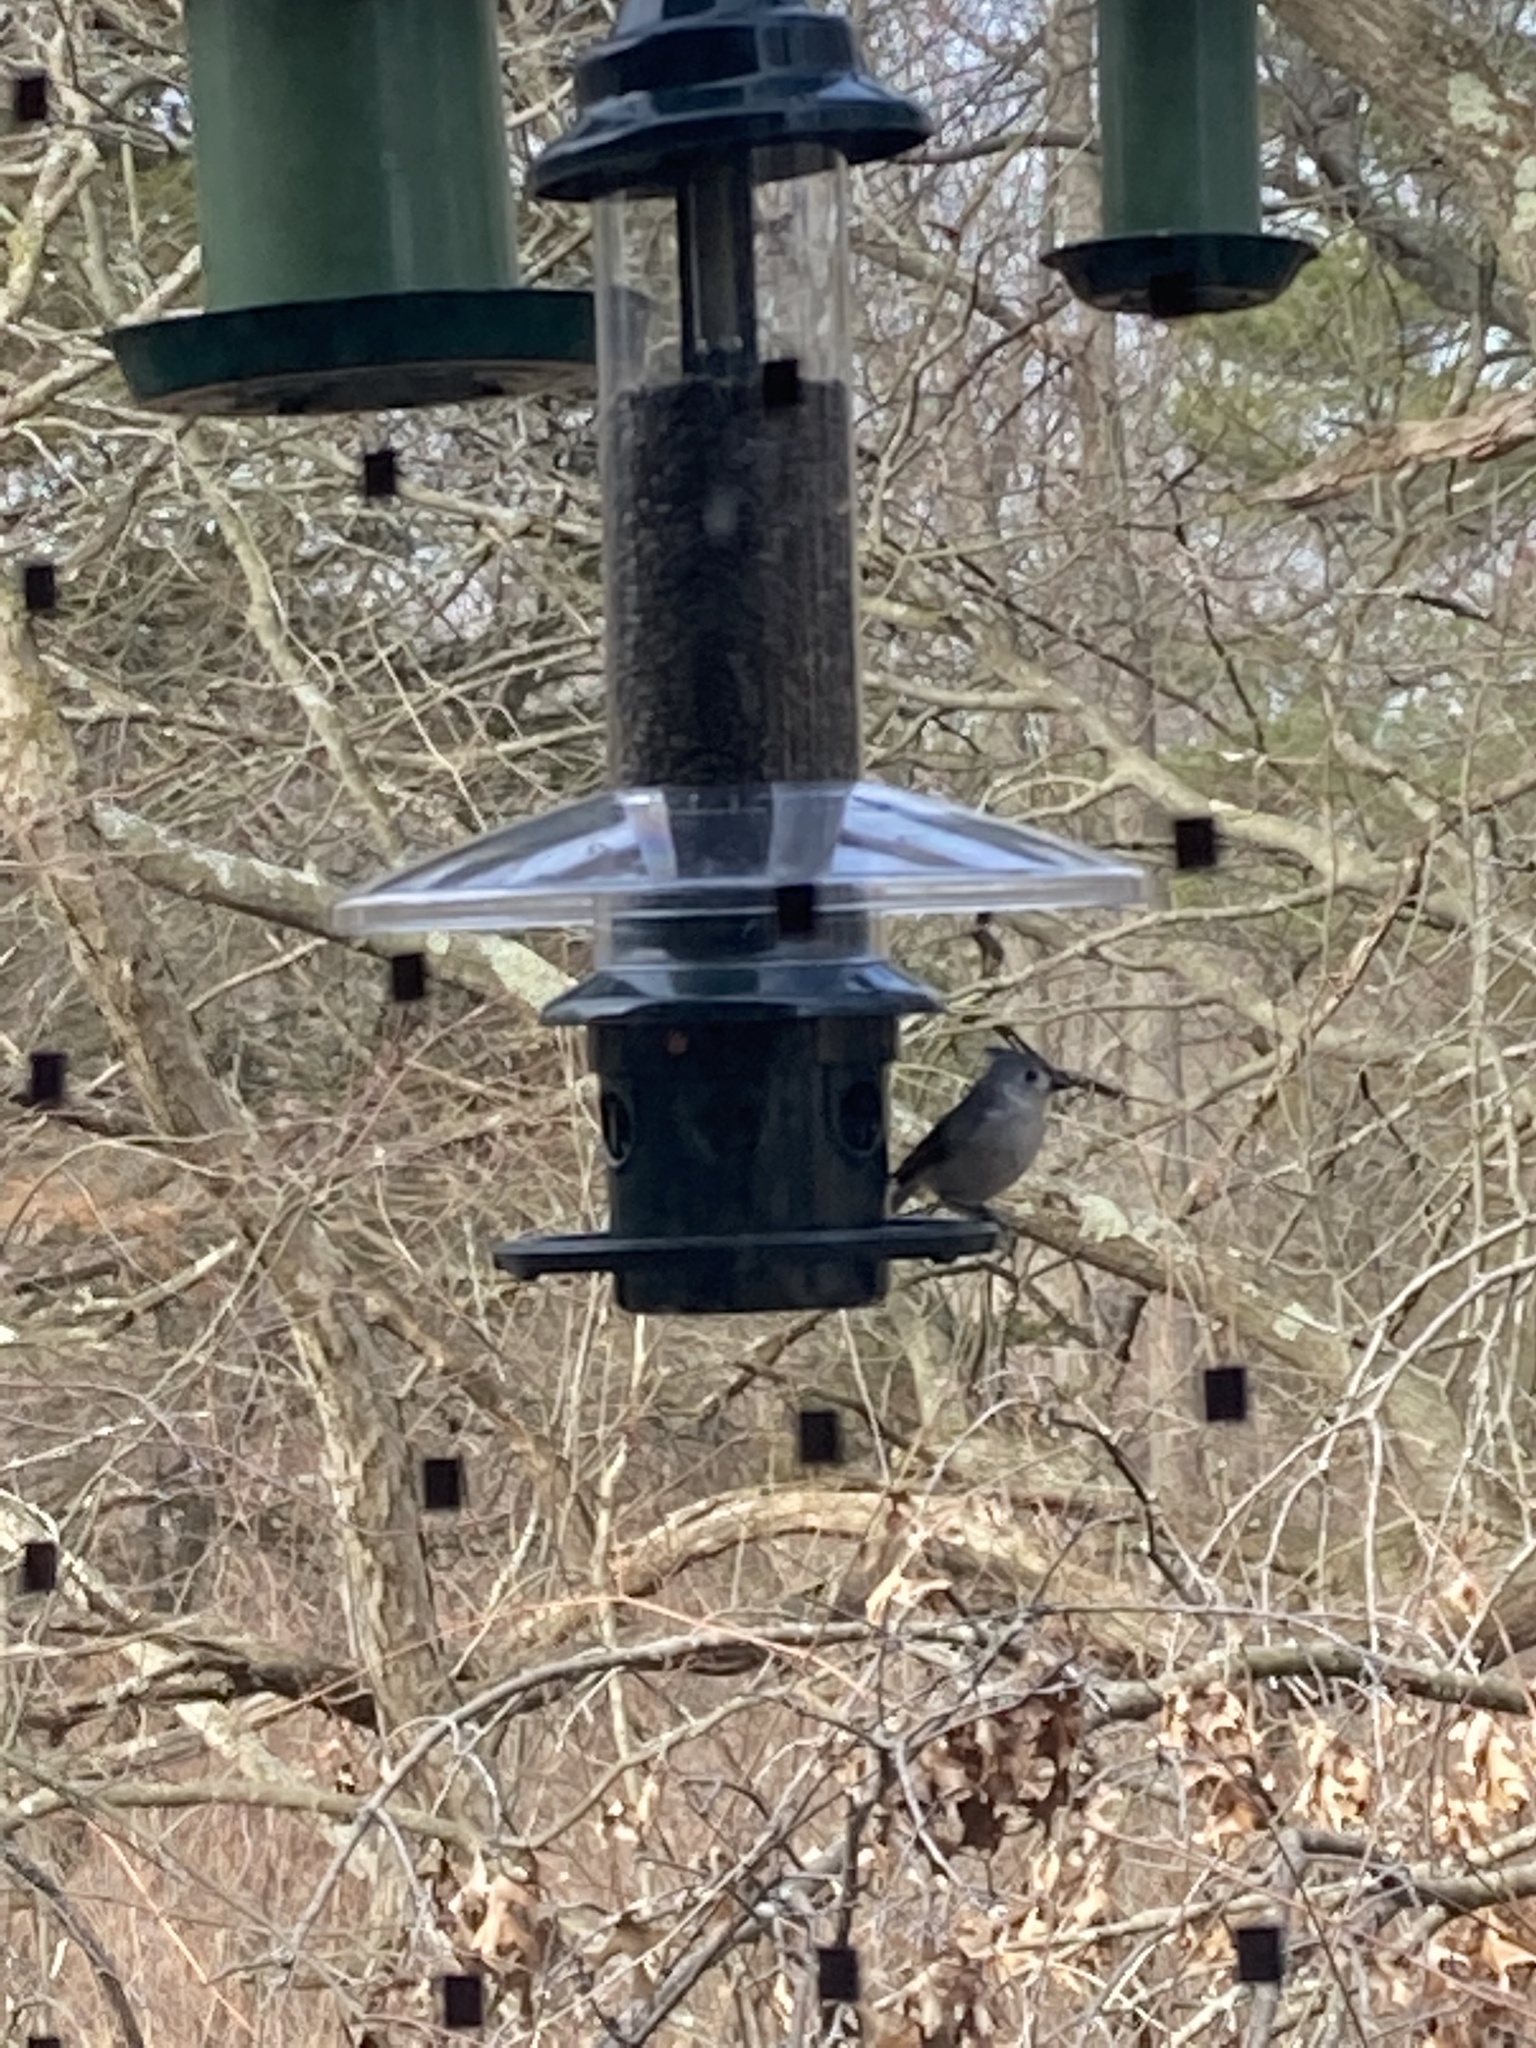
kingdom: Animalia
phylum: Chordata
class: Aves
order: Passeriformes
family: Paridae
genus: Baeolophus
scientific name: Baeolophus bicolor
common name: Tufted titmouse
